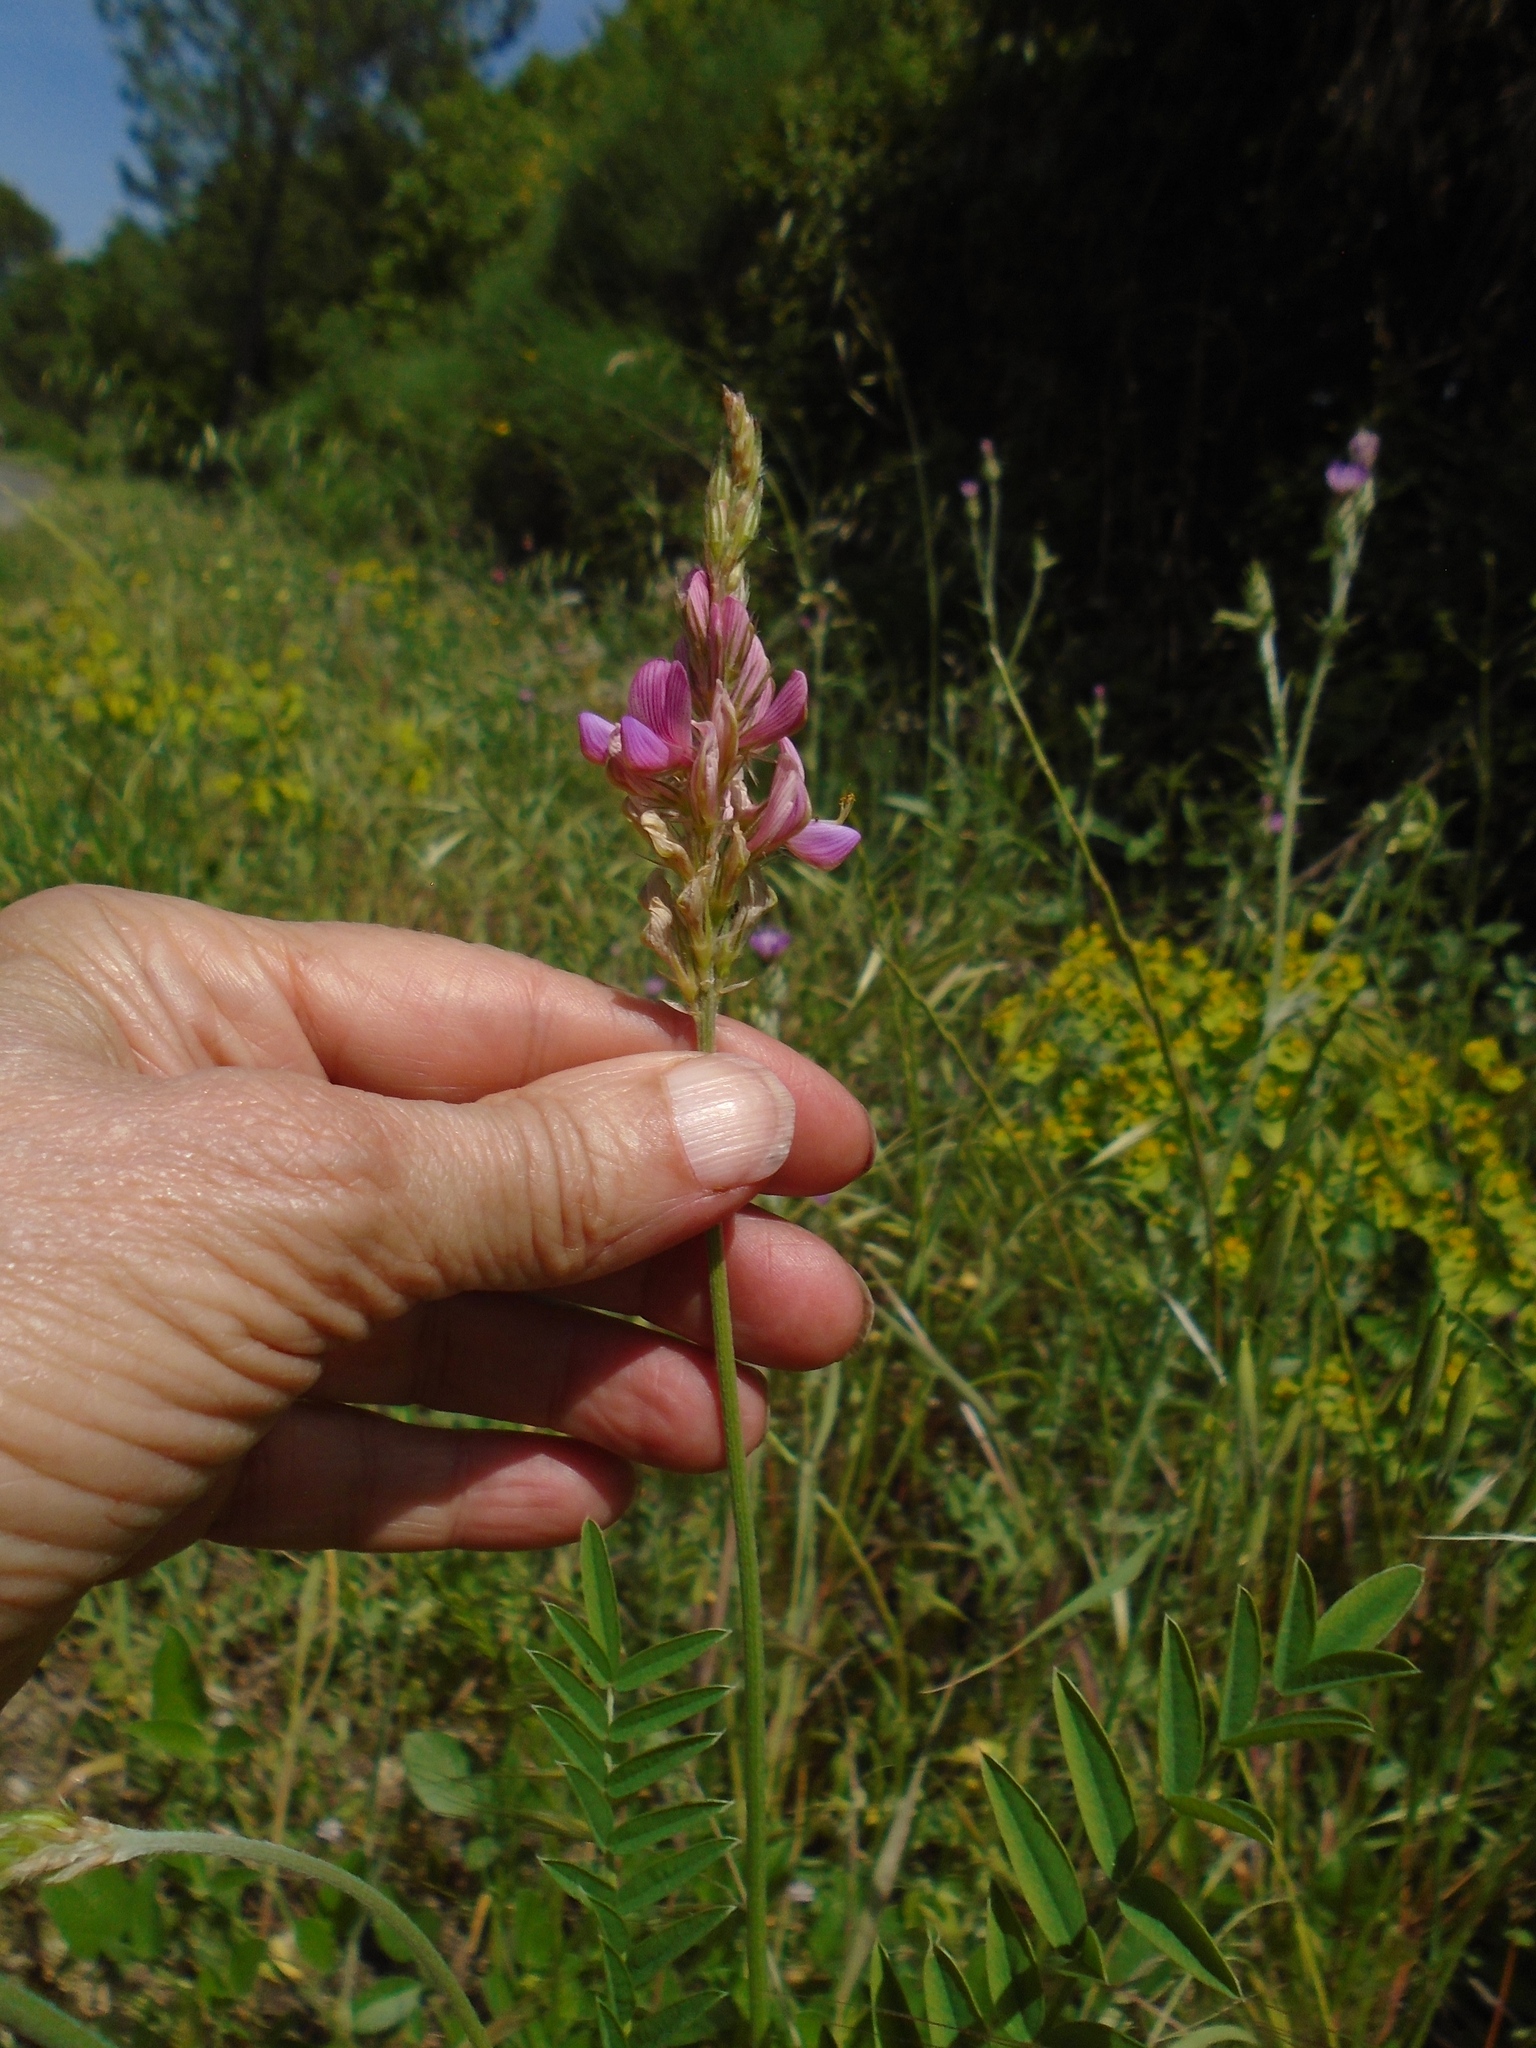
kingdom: Plantae
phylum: Tracheophyta
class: Magnoliopsida
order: Fabales
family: Fabaceae
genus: Onobrychis
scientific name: Onobrychis viciifolia
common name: Sainfoin
